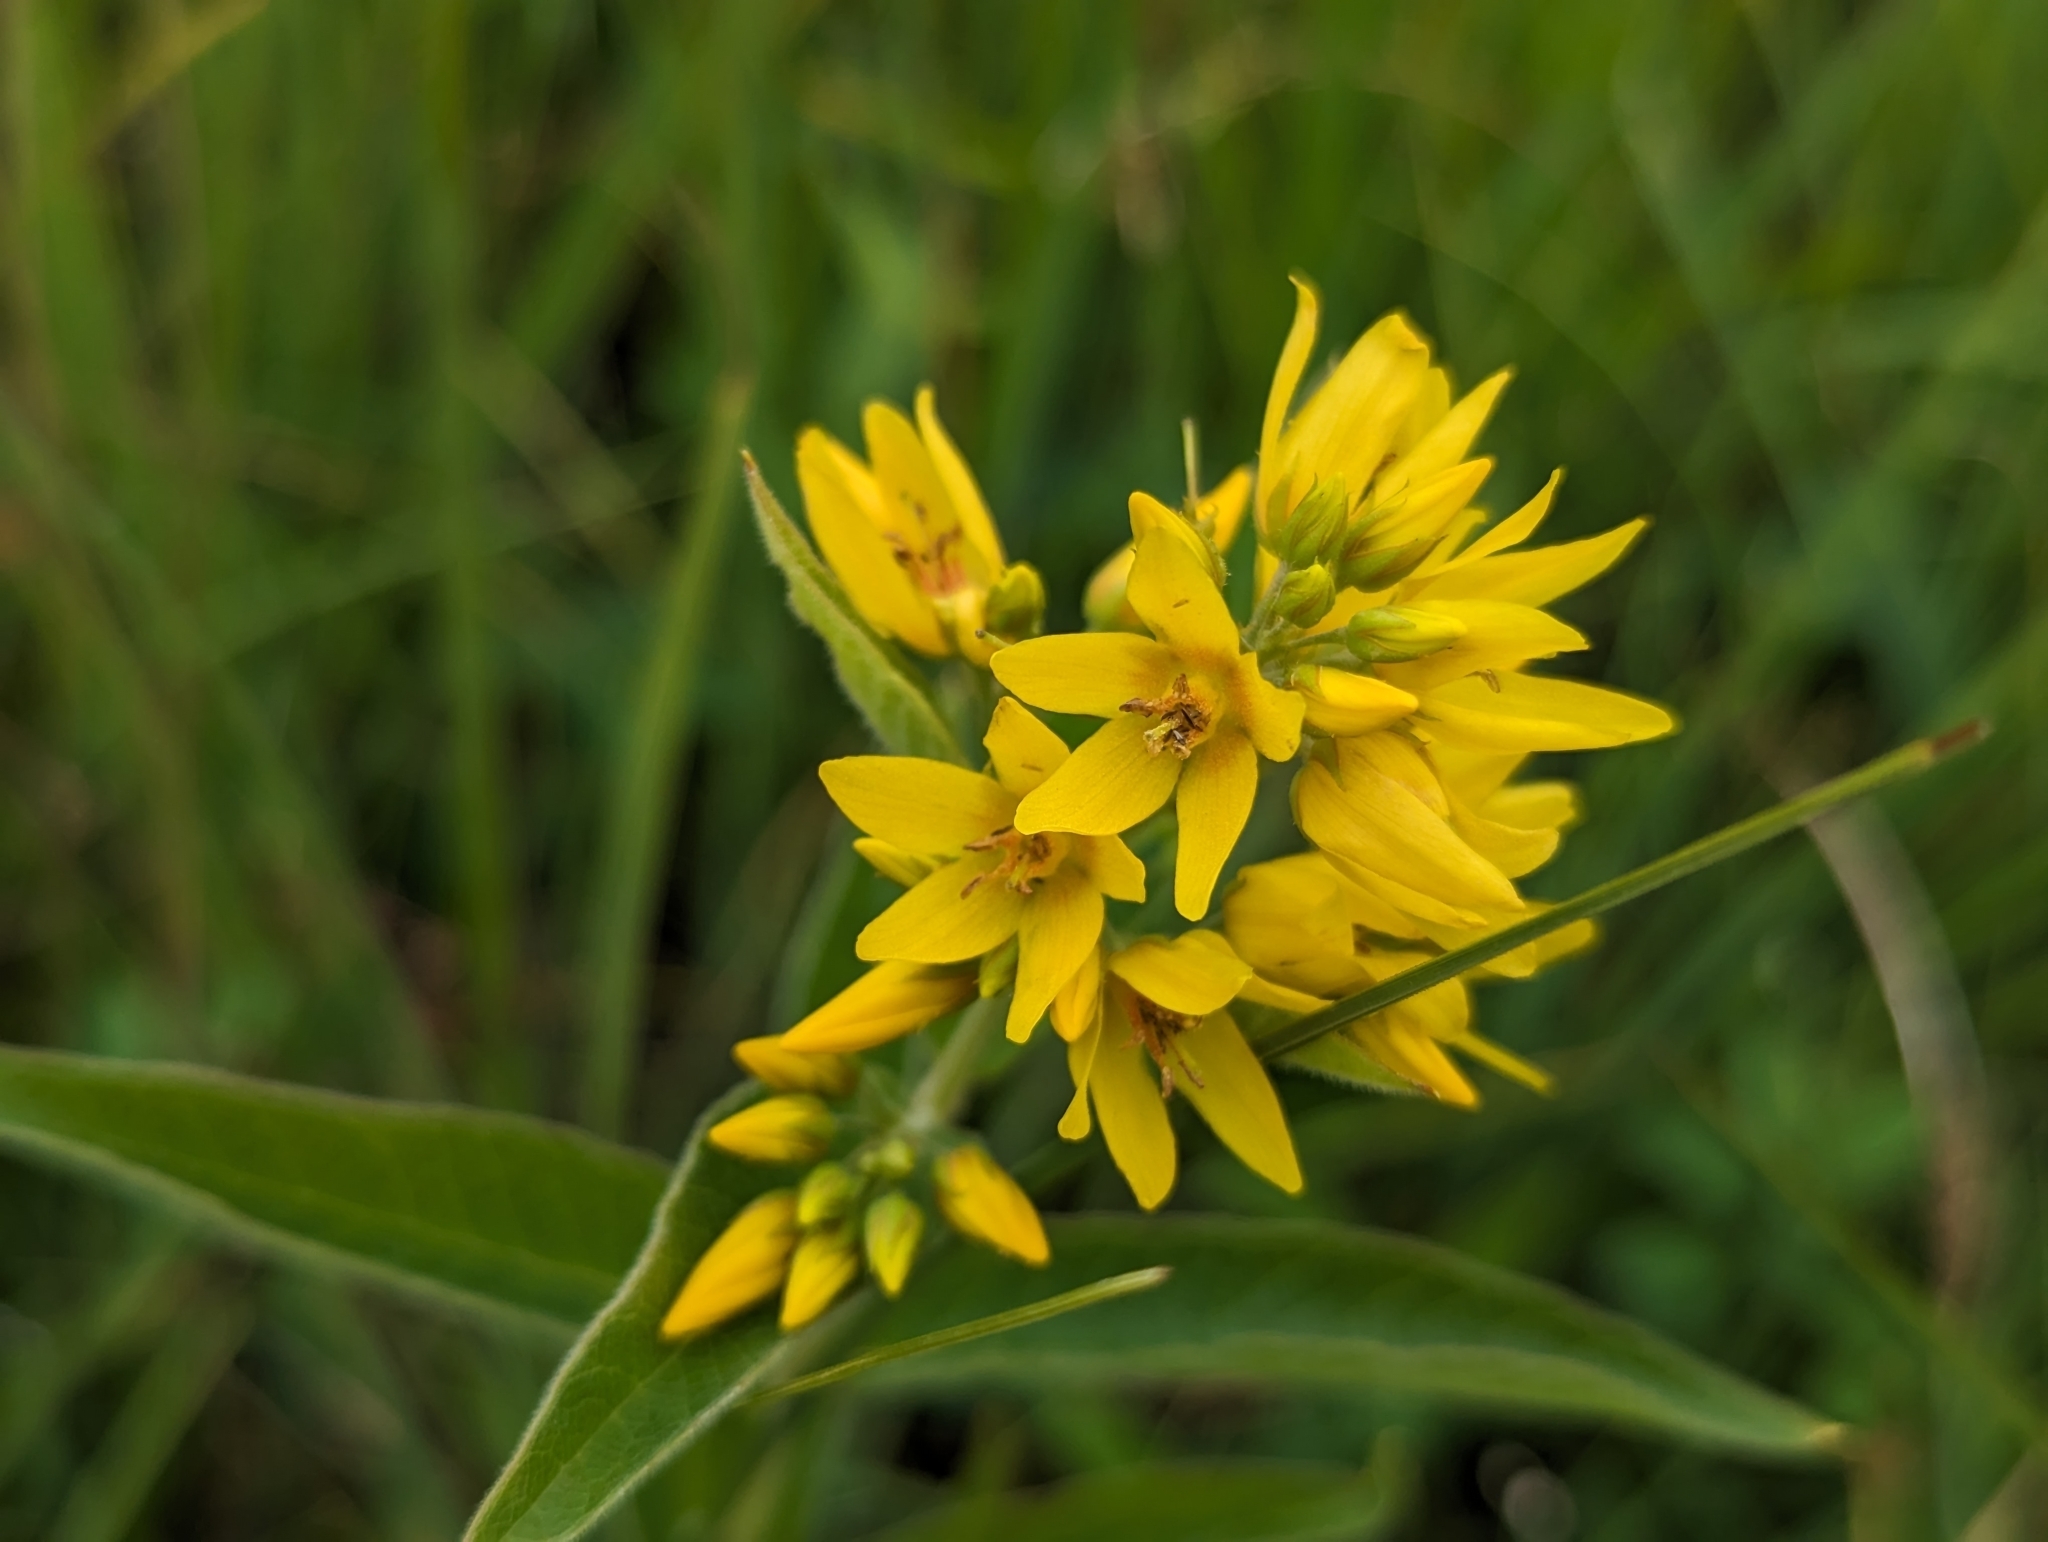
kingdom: Plantae
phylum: Tracheophyta
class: Magnoliopsida
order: Ericales
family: Primulaceae
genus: Lysimachia
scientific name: Lysimachia vulgaris
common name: Yellow loosestrife
